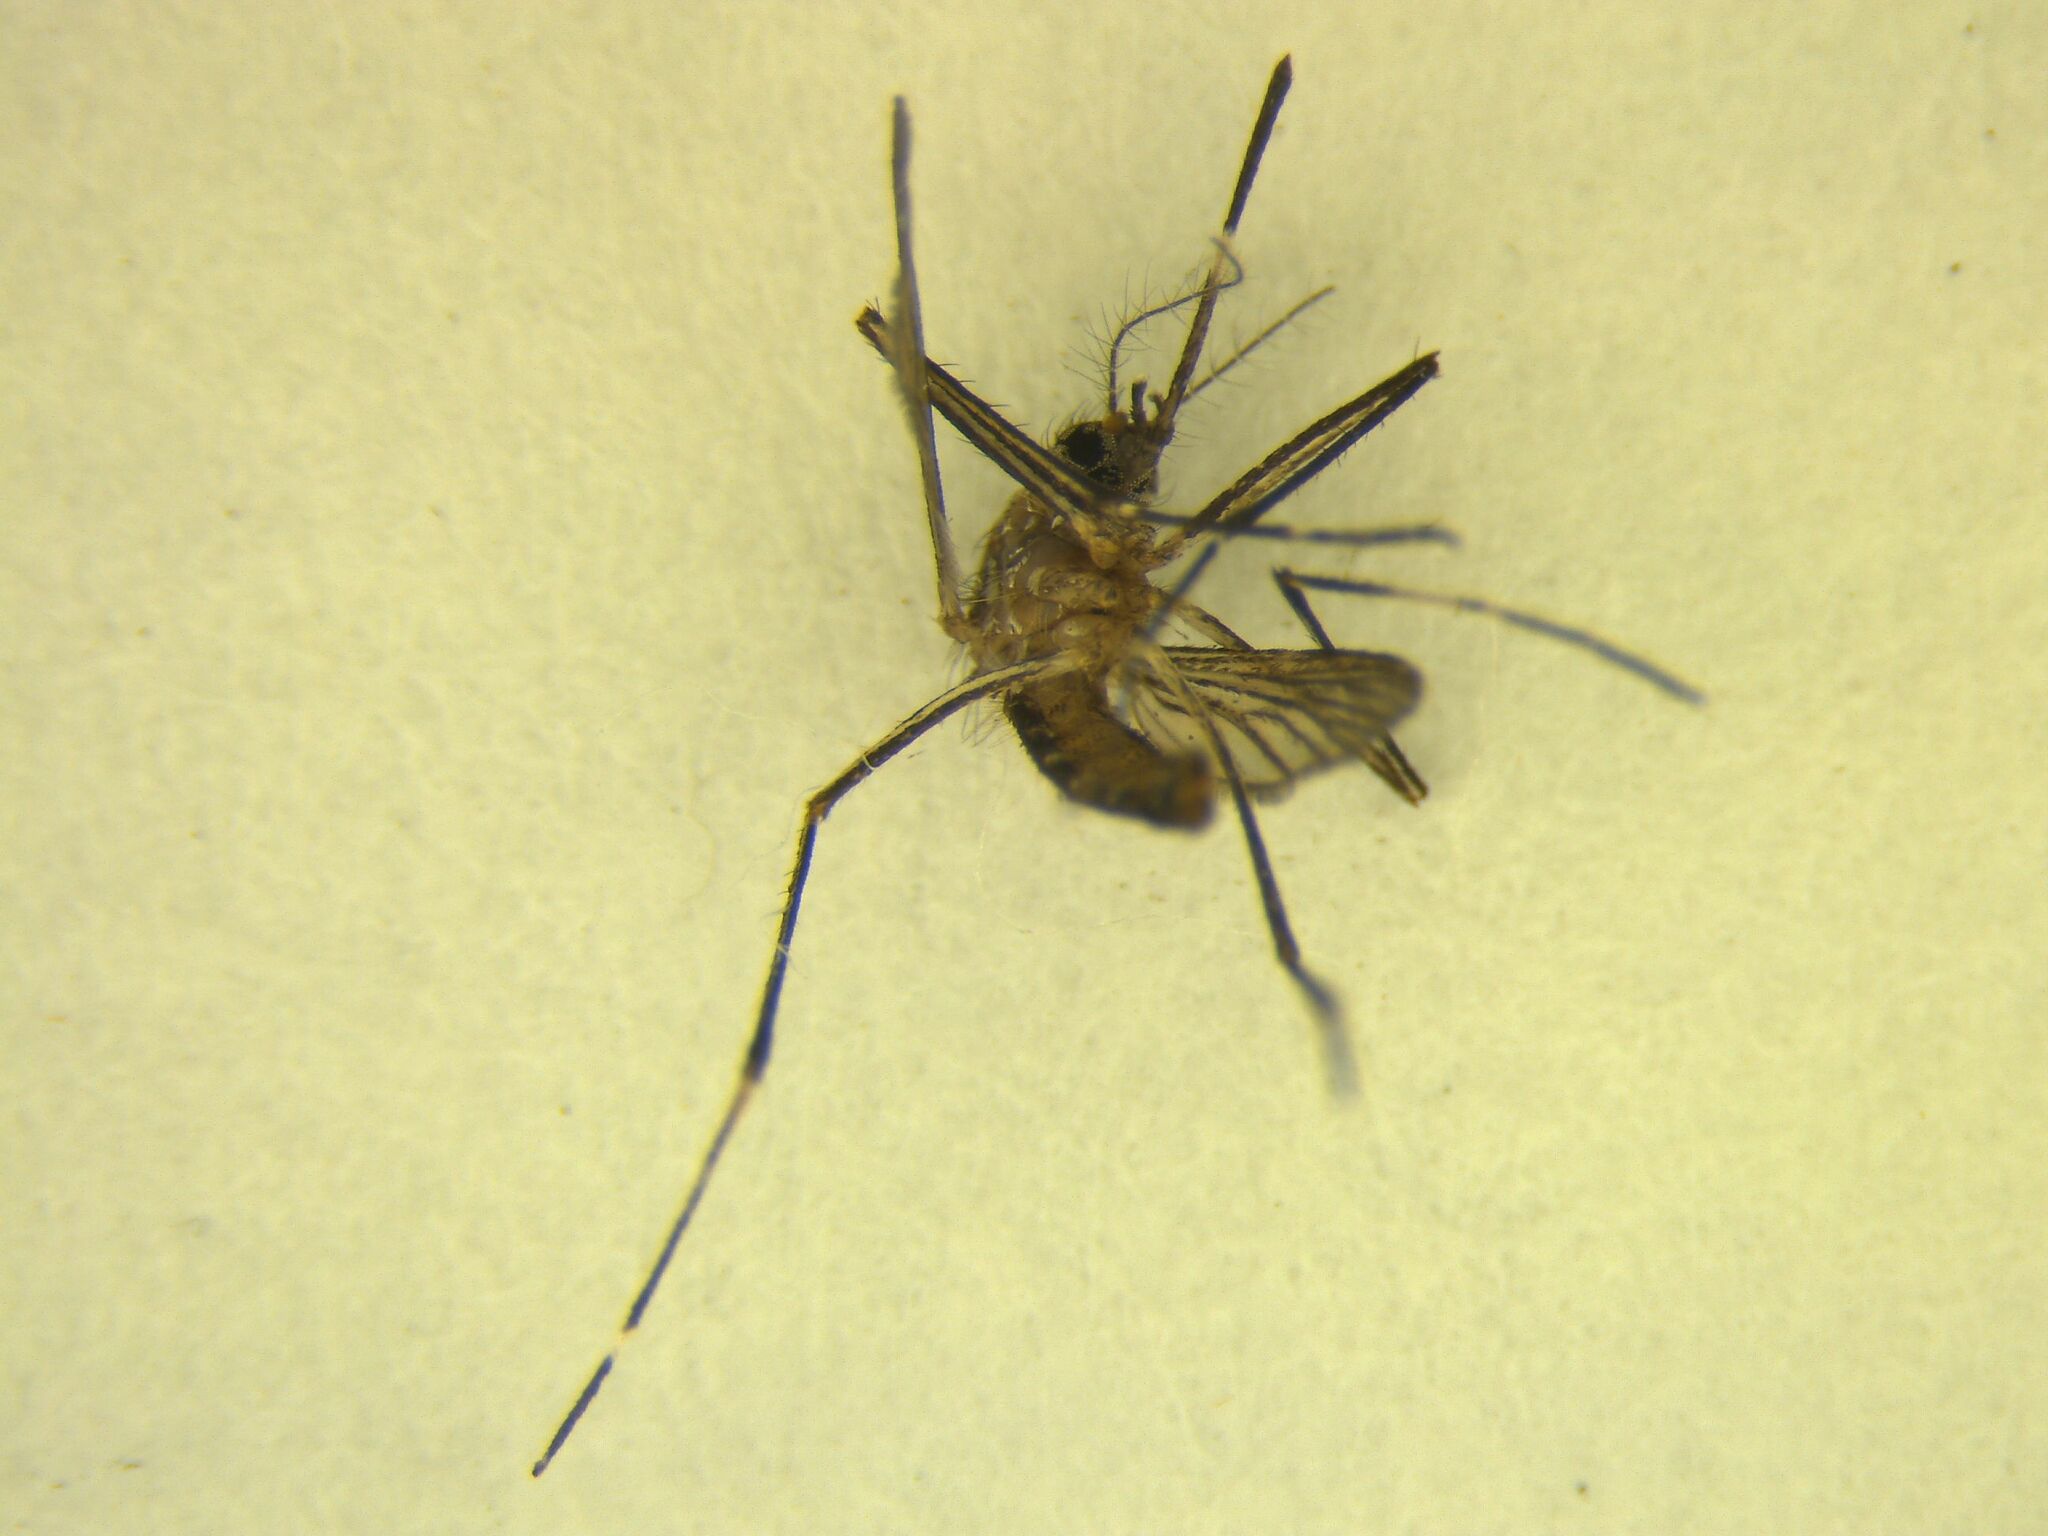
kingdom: Animalia
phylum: Arthropoda
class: Insecta
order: Diptera
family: Culicidae
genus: Aedes
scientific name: Aedes notoscriptus
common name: Australian backyard mosquito
